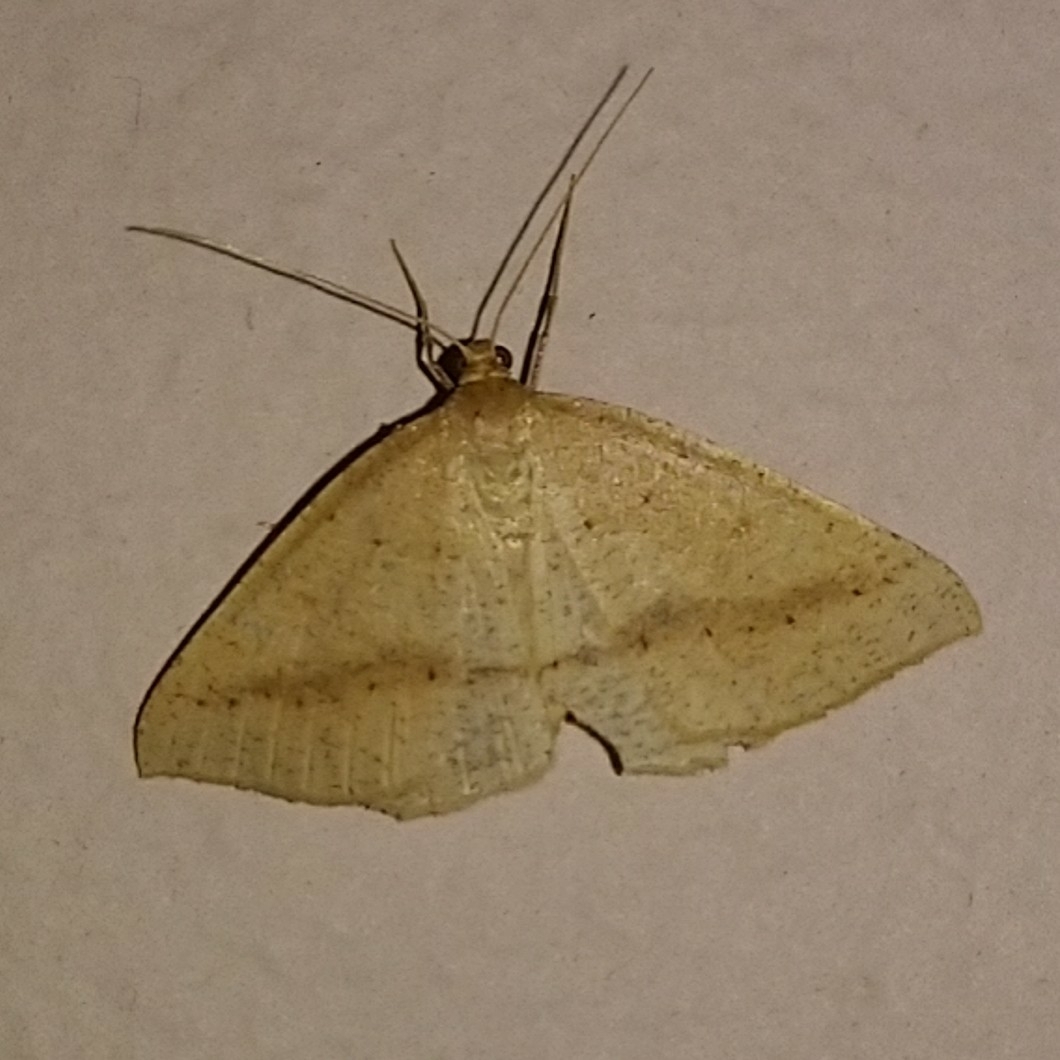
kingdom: Animalia
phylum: Arthropoda
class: Insecta
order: Lepidoptera
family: Geometridae
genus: Palaeaspilates
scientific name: Palaeaspilates inoffensa
